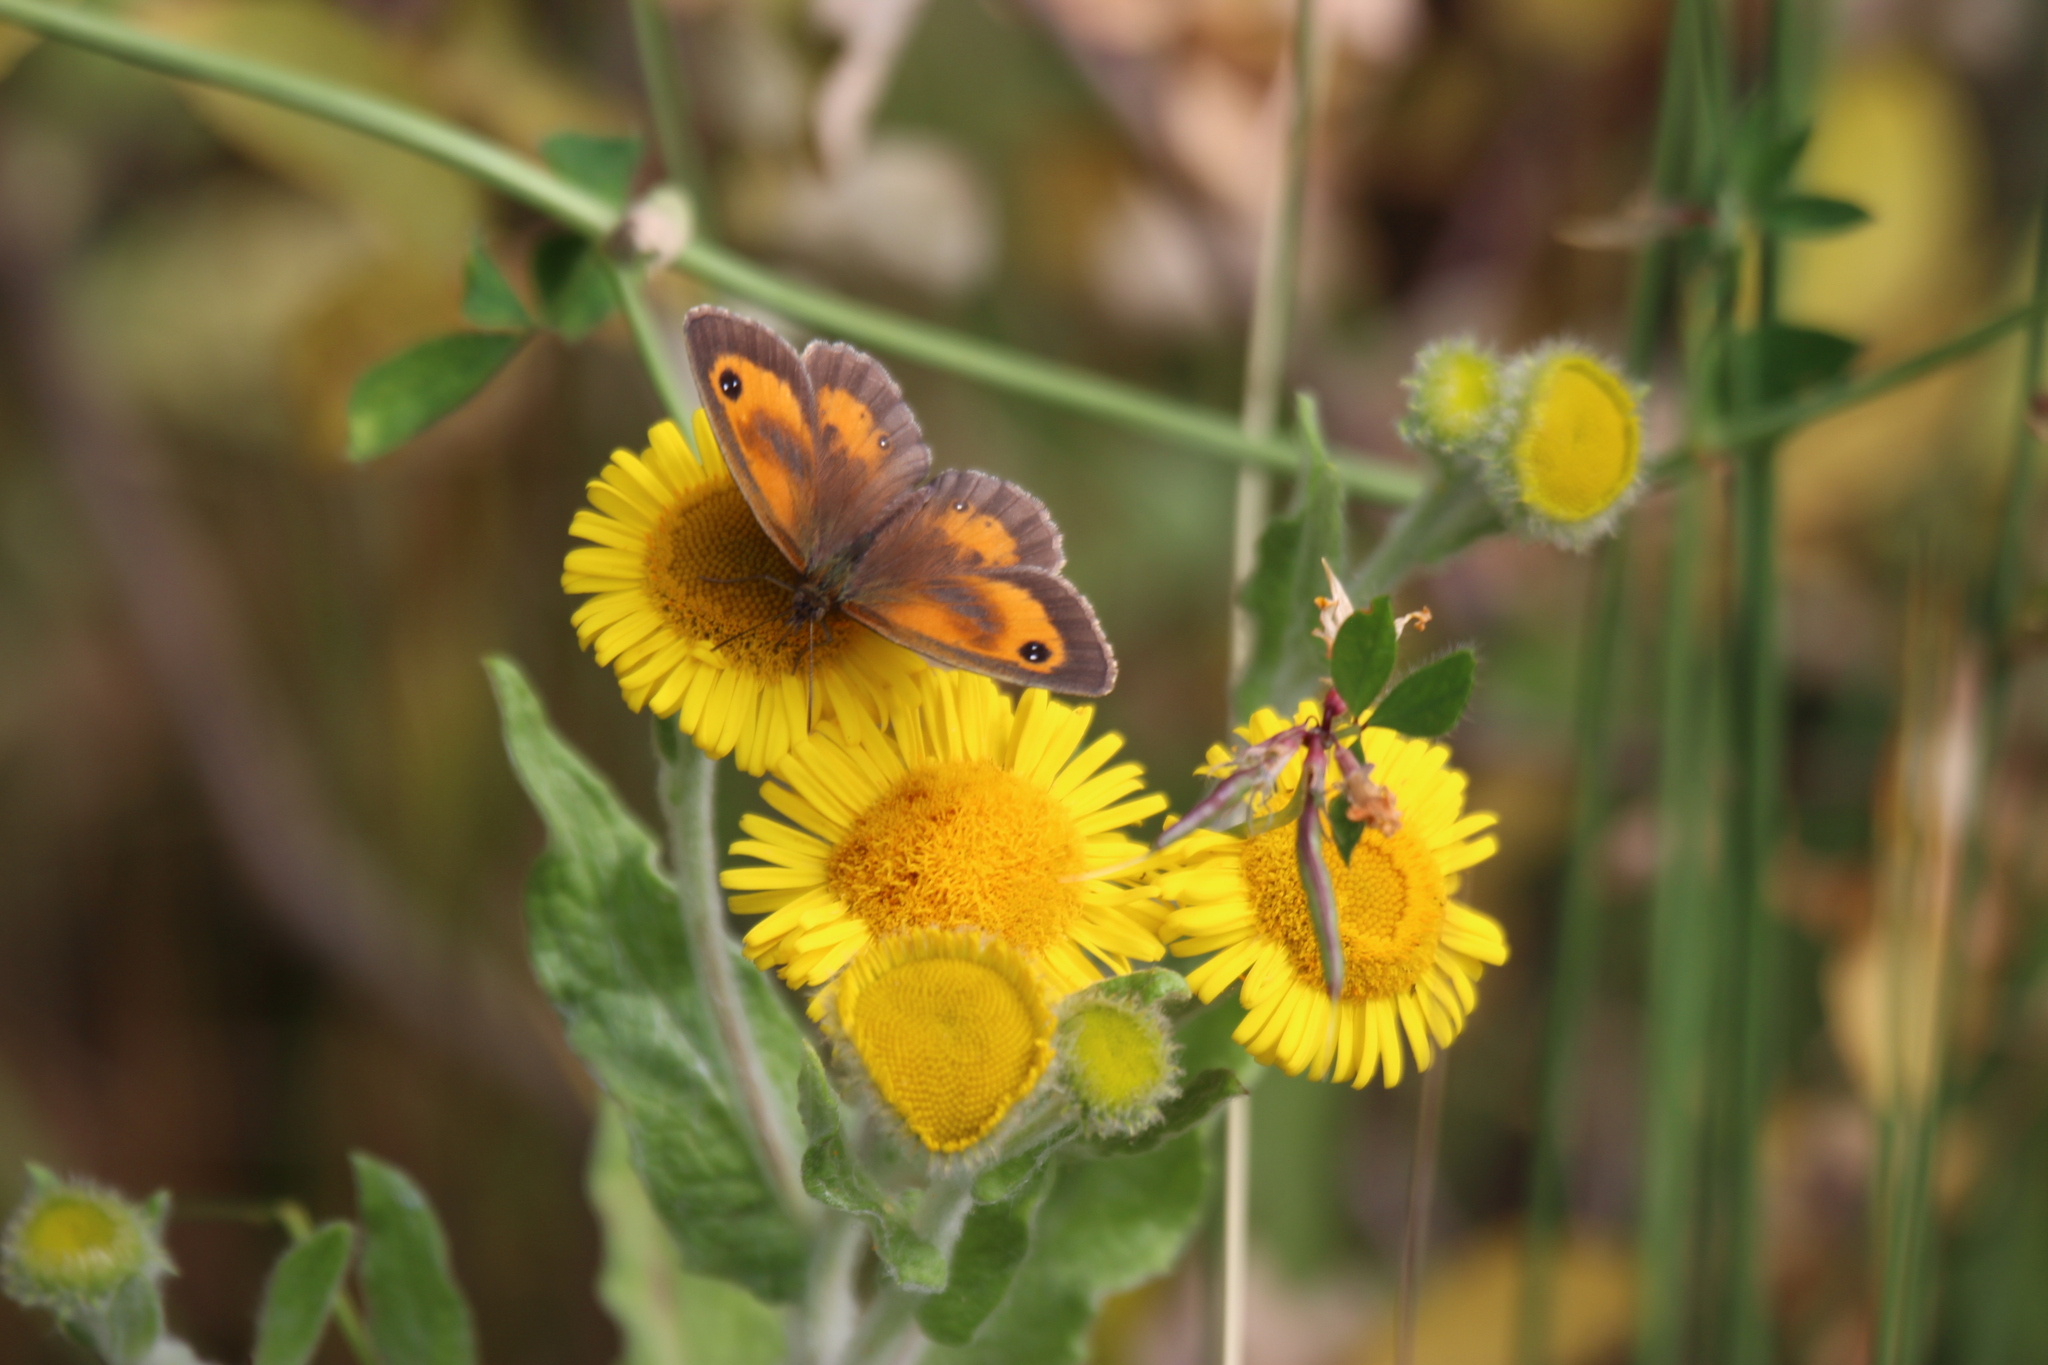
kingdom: Animalia
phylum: Arthropoda
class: Insecta
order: Lepidoptera
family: Nymphalidae
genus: Pyronia
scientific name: Pyronia tithonus
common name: Gatekeeper
